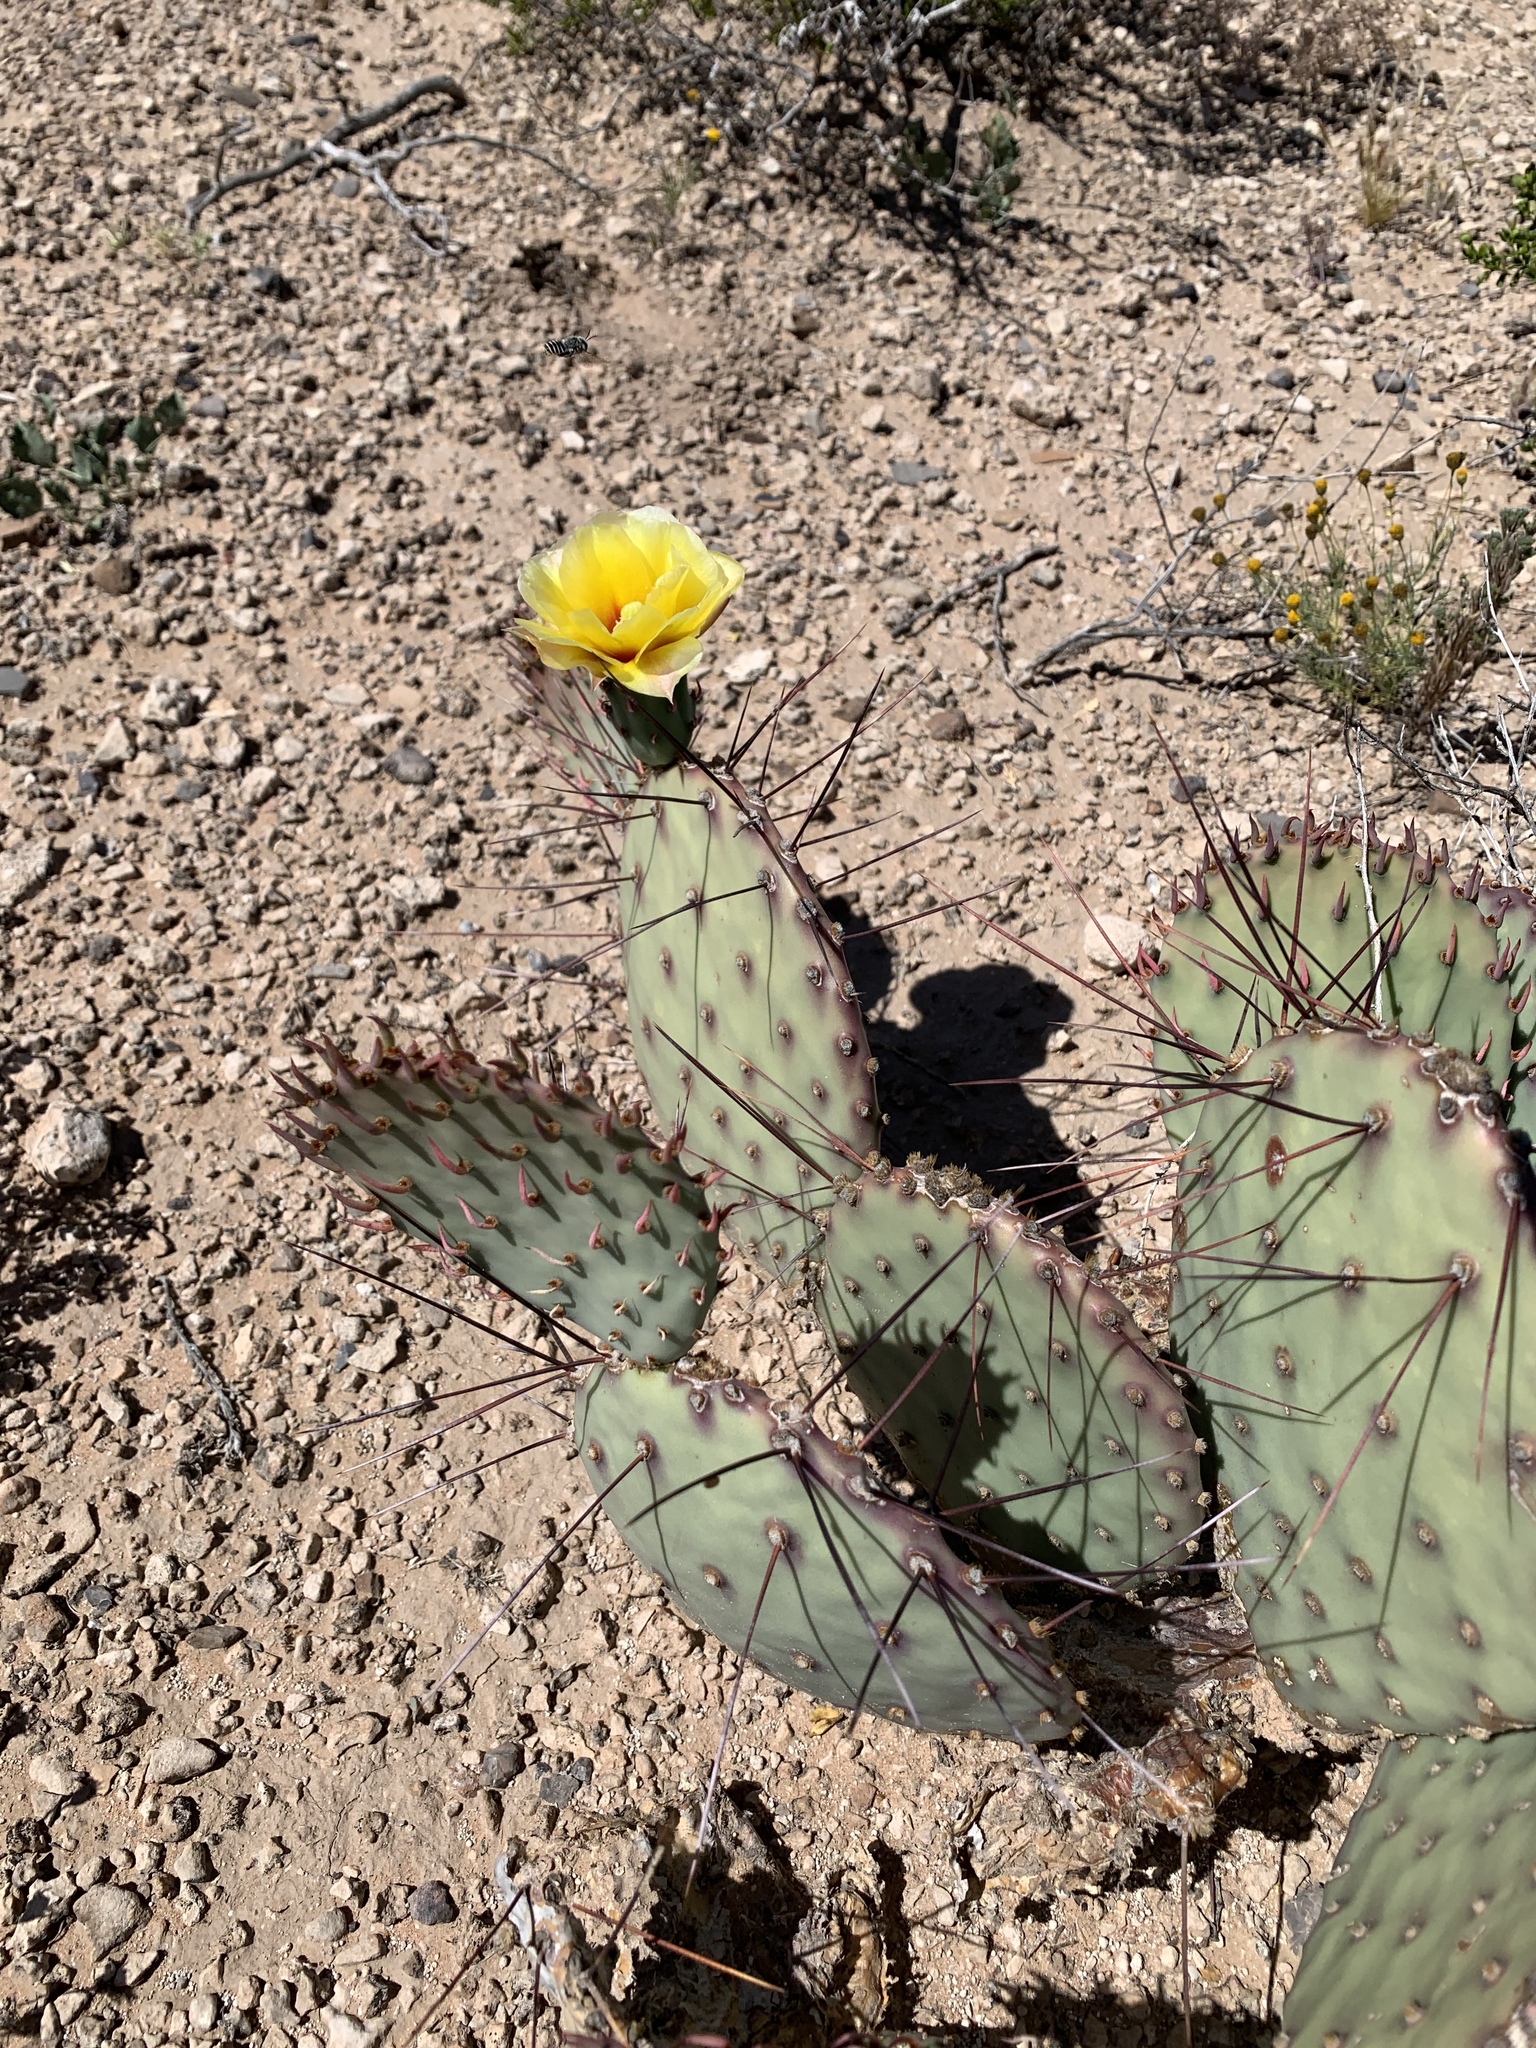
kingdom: Plantae
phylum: Tracheophyta
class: Magnoliopsida
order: Caryophyllales
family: Cactaceae
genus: Opuntia
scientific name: Opuntia macrocentra
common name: Purple prickly-pear
